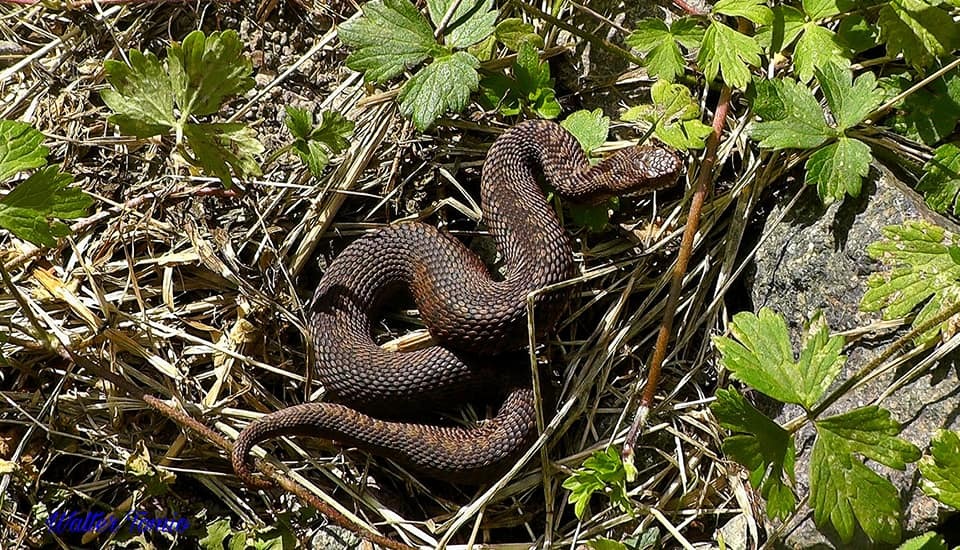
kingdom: Animalia
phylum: Chordata
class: Squamata
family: Viperidae
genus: Vipera
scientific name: Vipera berus
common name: Adder
